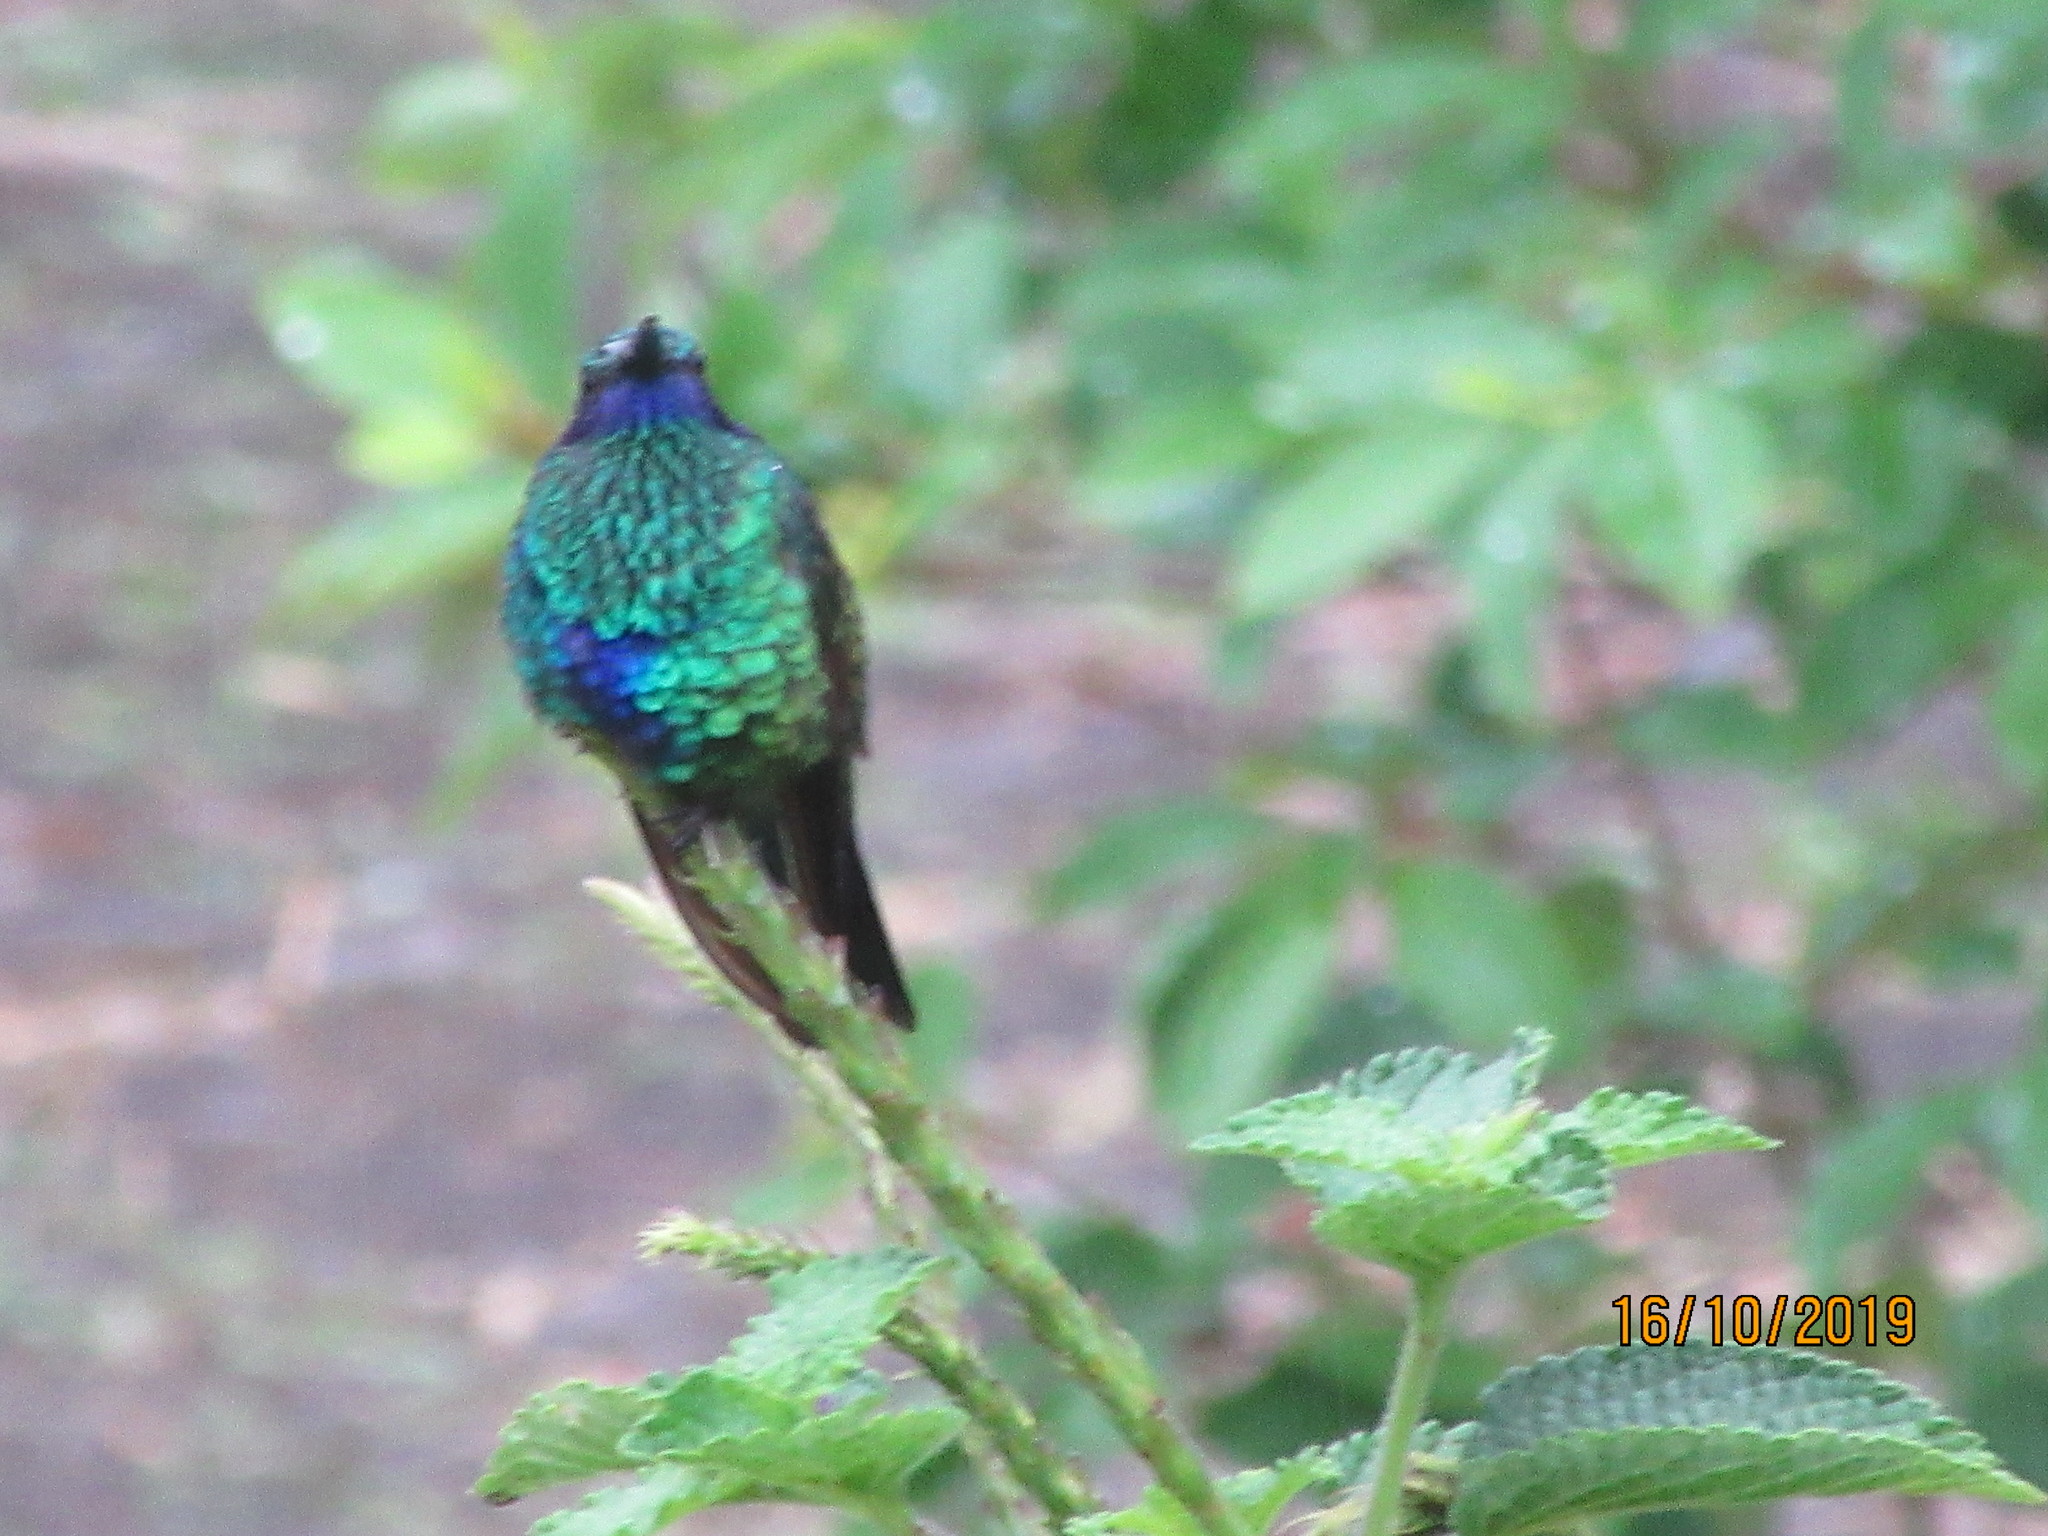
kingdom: Animalia
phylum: Chordata
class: Aves
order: Apodiformes
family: Trochilidae
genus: Colibri
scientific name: Colibri coruscans
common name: Sparkling violetear
